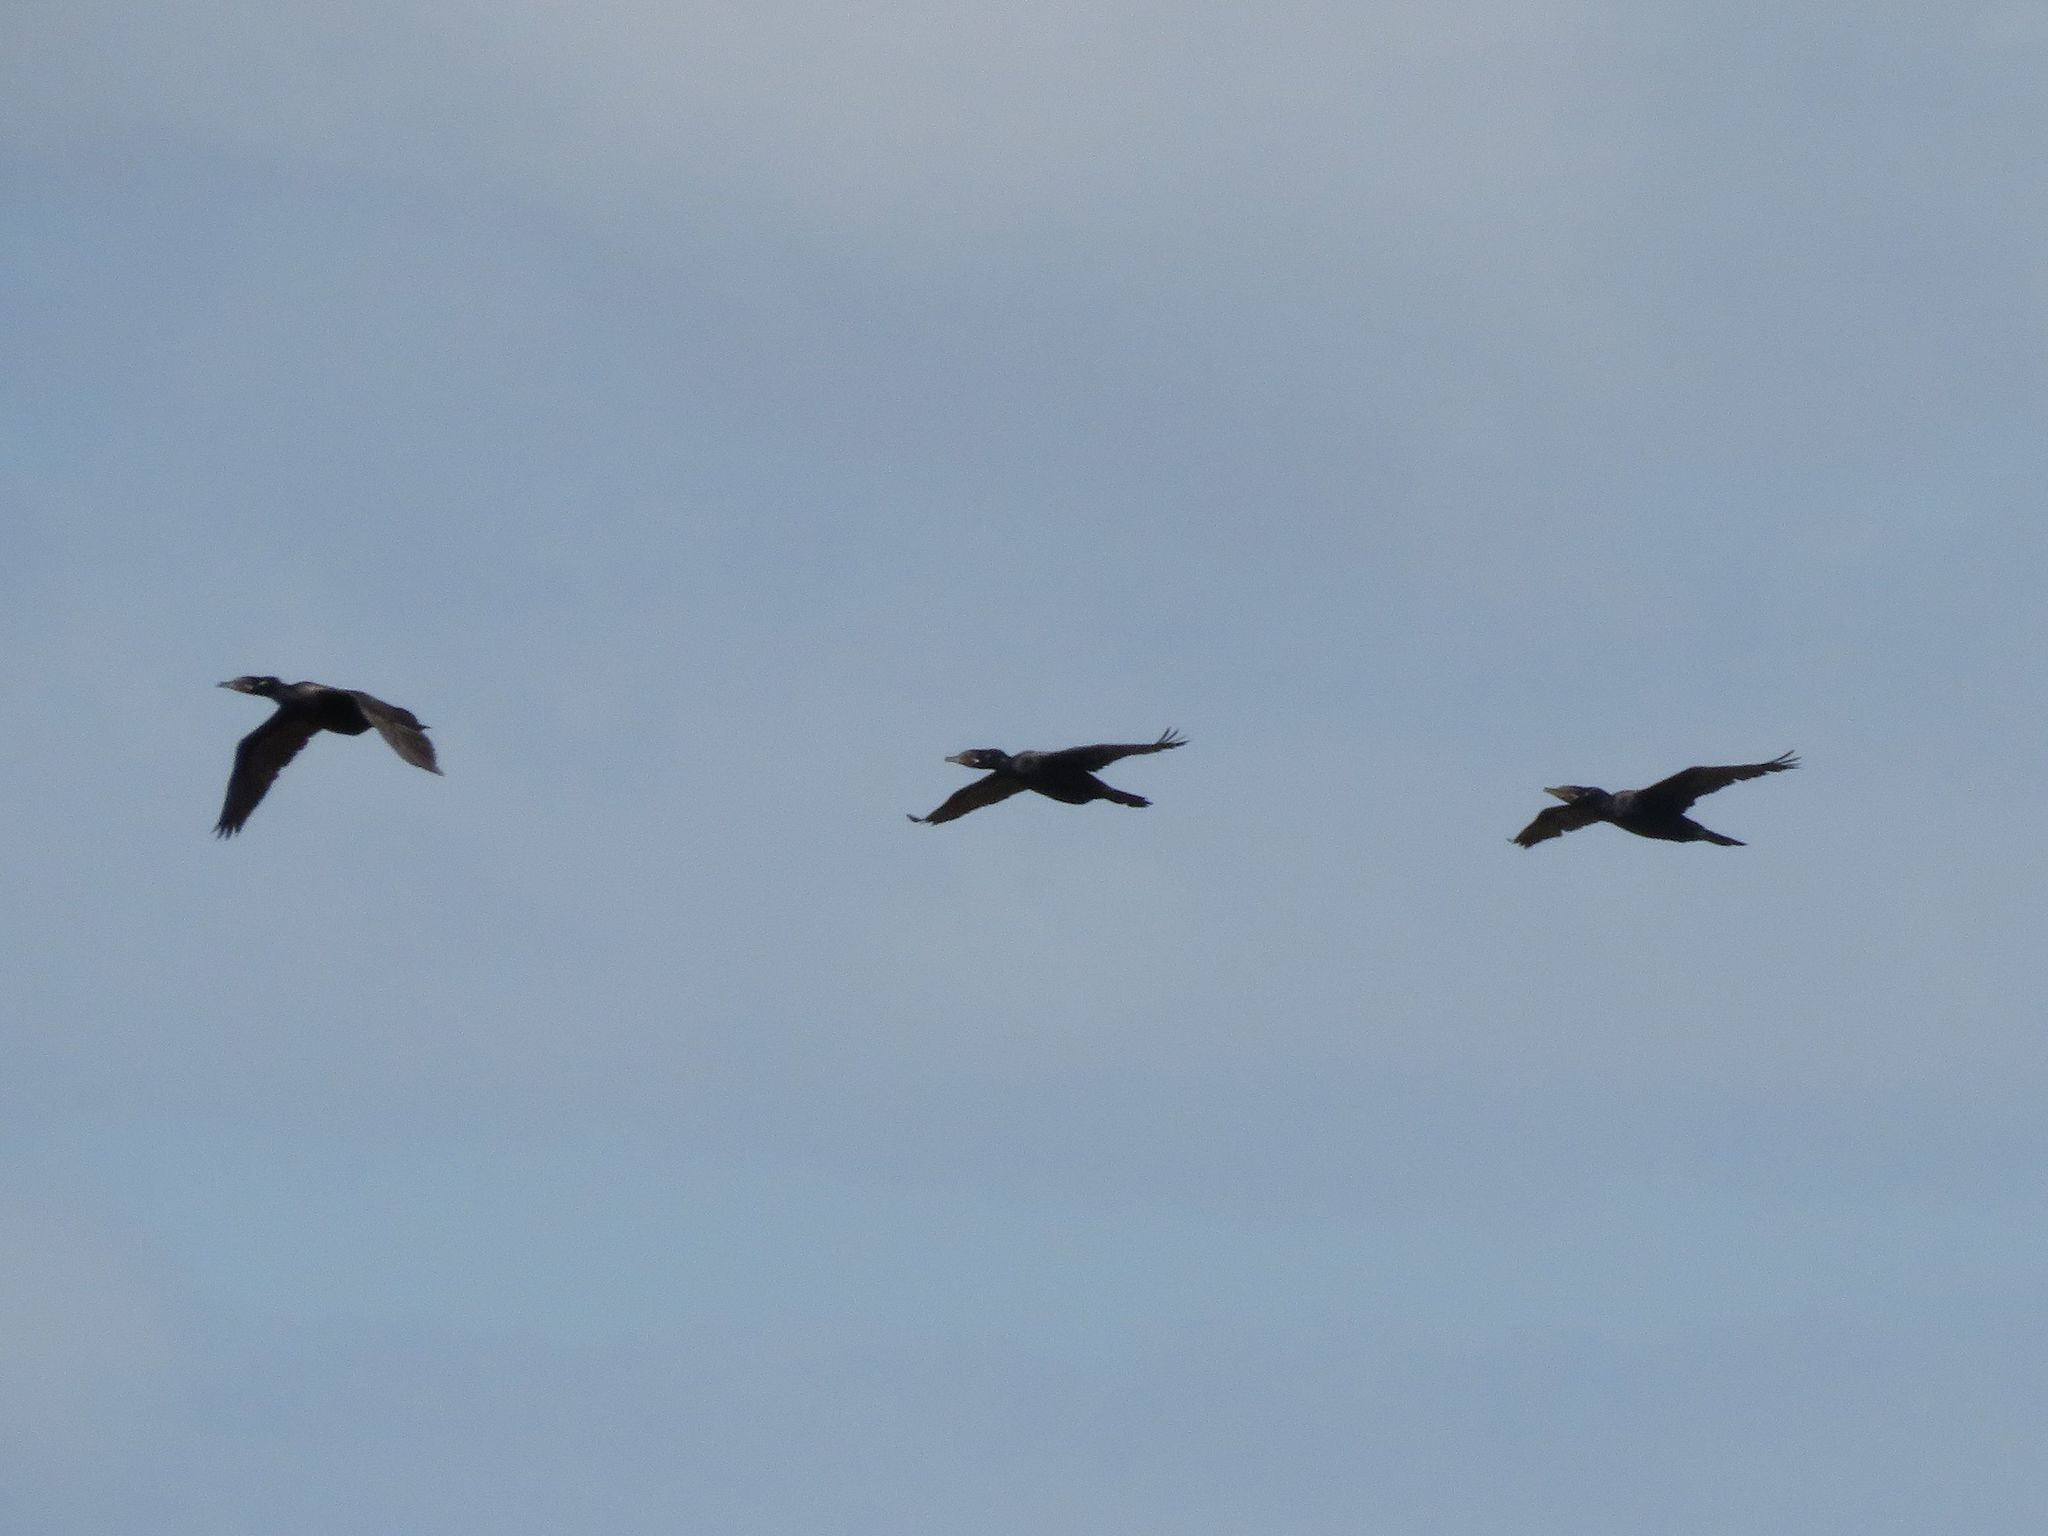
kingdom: Animalia
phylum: Chordata
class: Aves
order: Suliformes
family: Phalacrocoracidae
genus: Phalacrocorax
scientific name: Phalacrocorax brasilianus
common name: Neotropic cormorant
